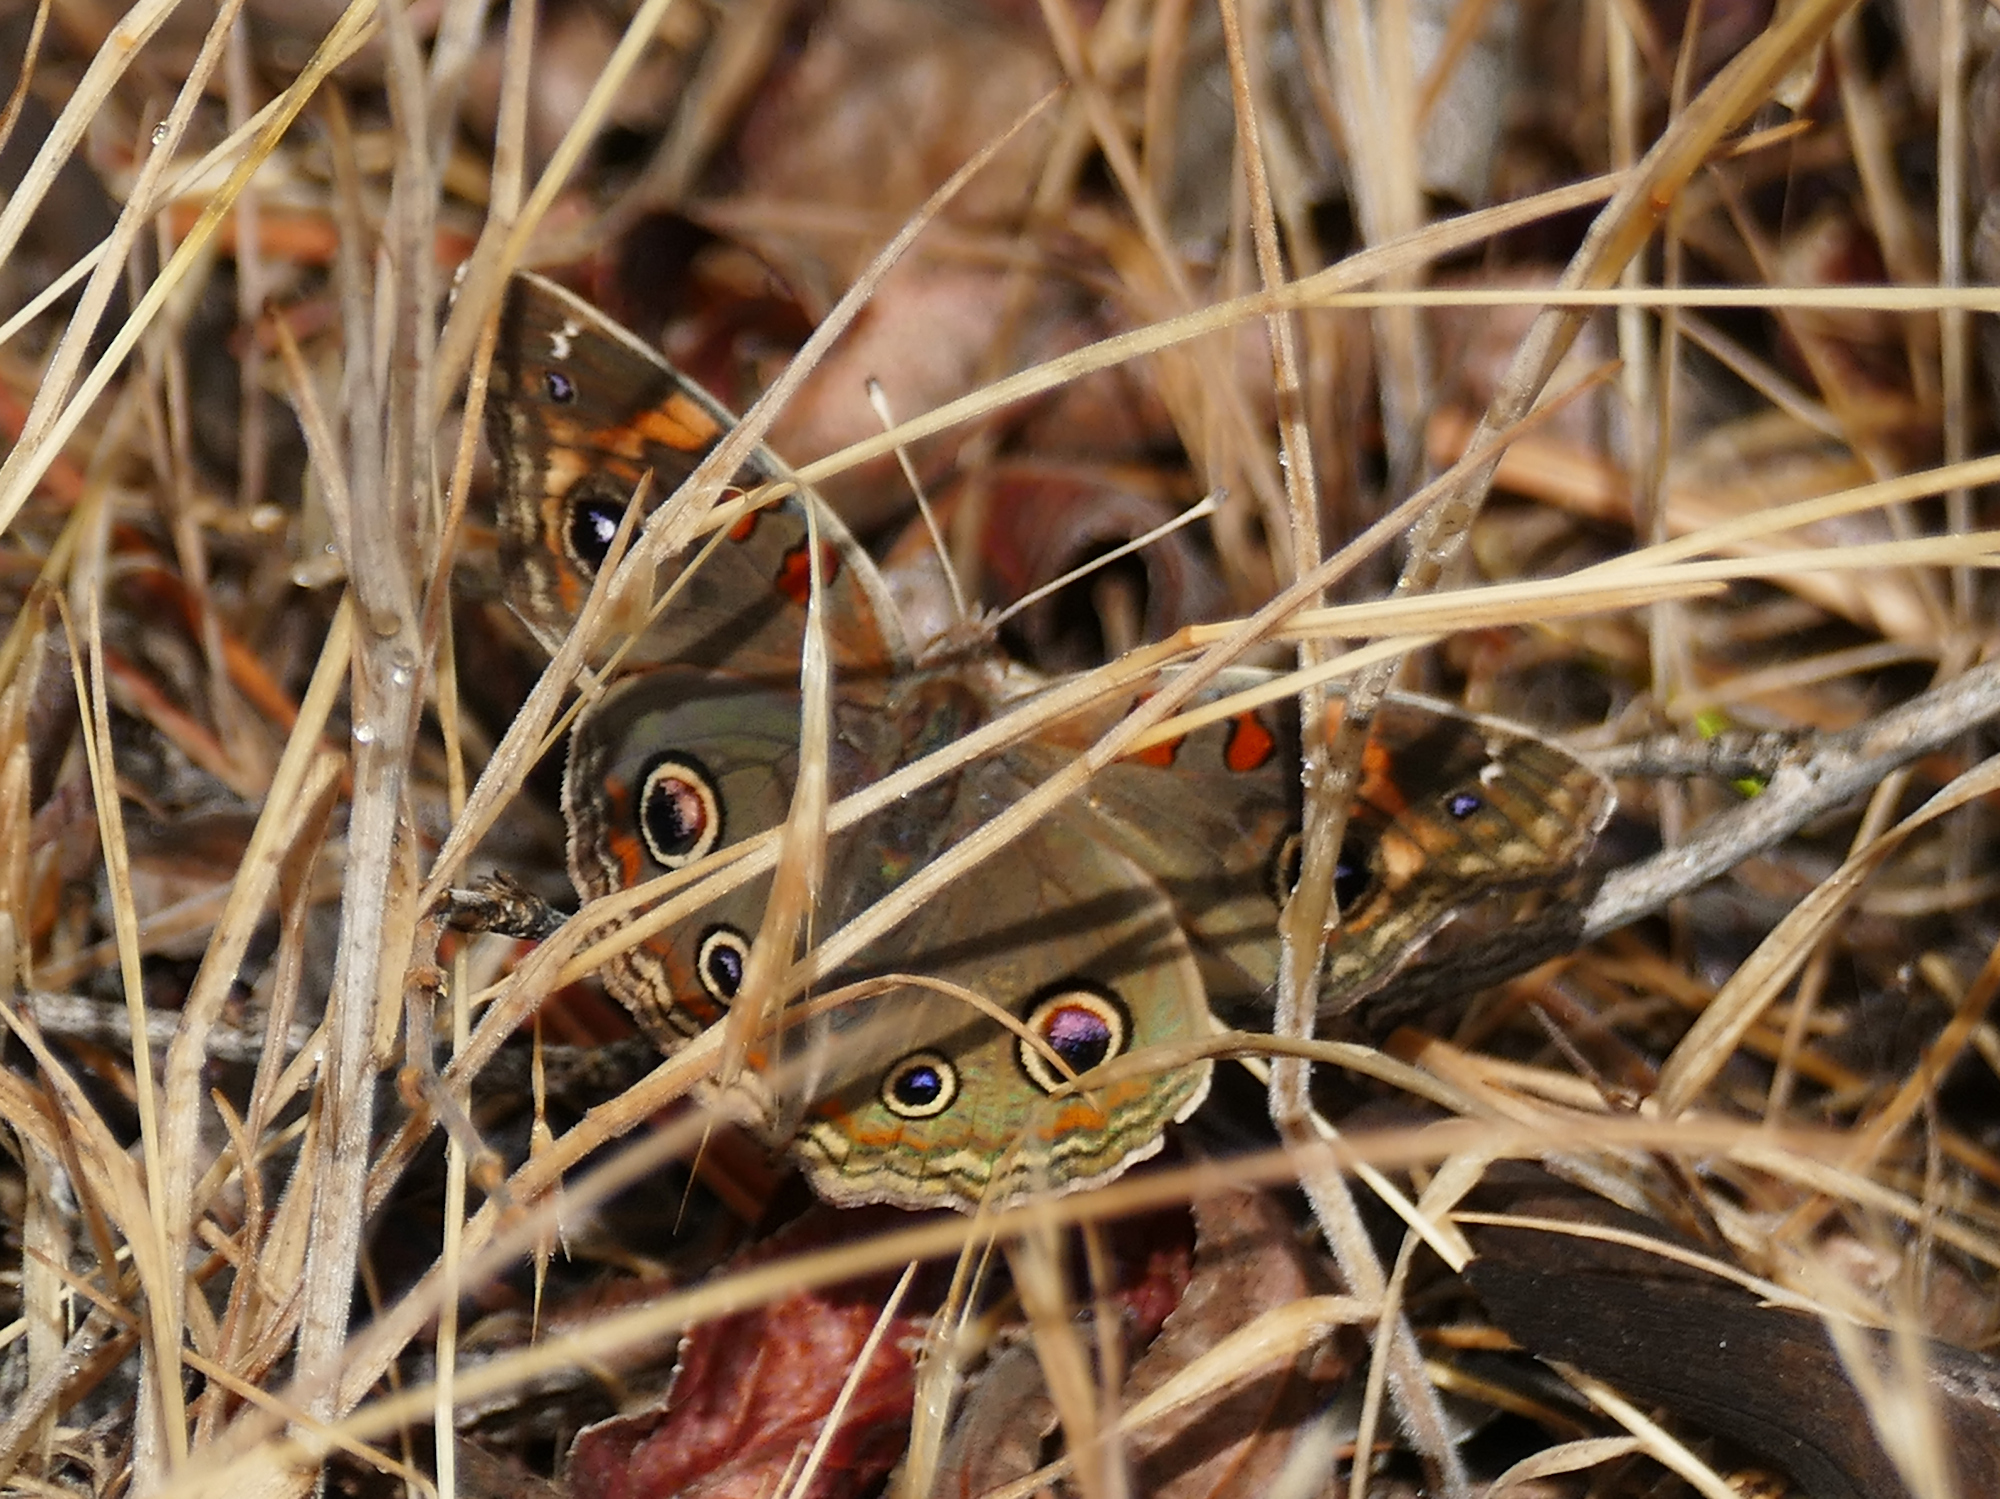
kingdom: Animalia
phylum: Arthropoda
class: Insecta
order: Lepidoptera
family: Nymphalidae
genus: Junonia
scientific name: Junonia grisea
